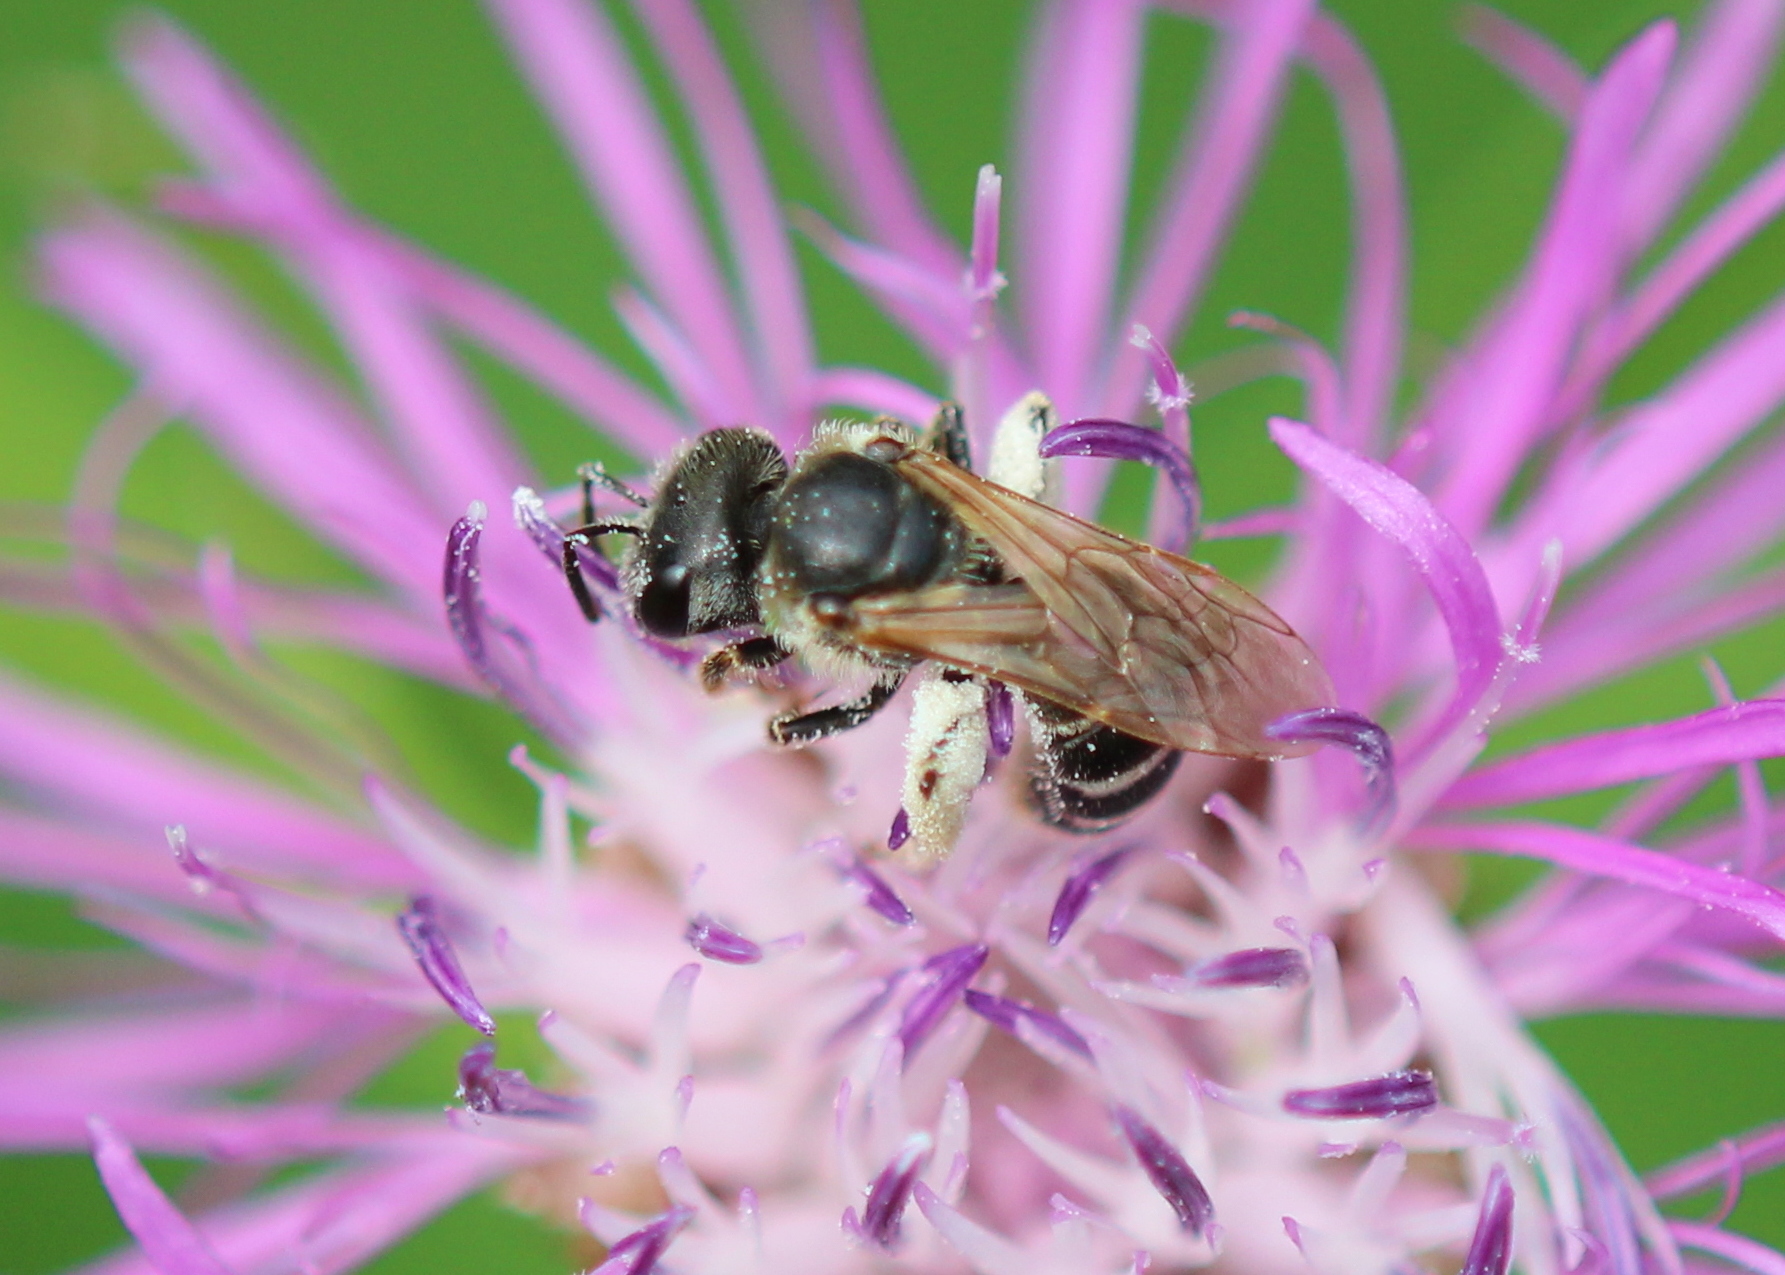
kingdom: Animalia
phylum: Arthropoda
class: Insecta
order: Hymenoptera
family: Halictidae
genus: Halictus
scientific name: Halictus ligatus
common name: Ligated furrow bee
